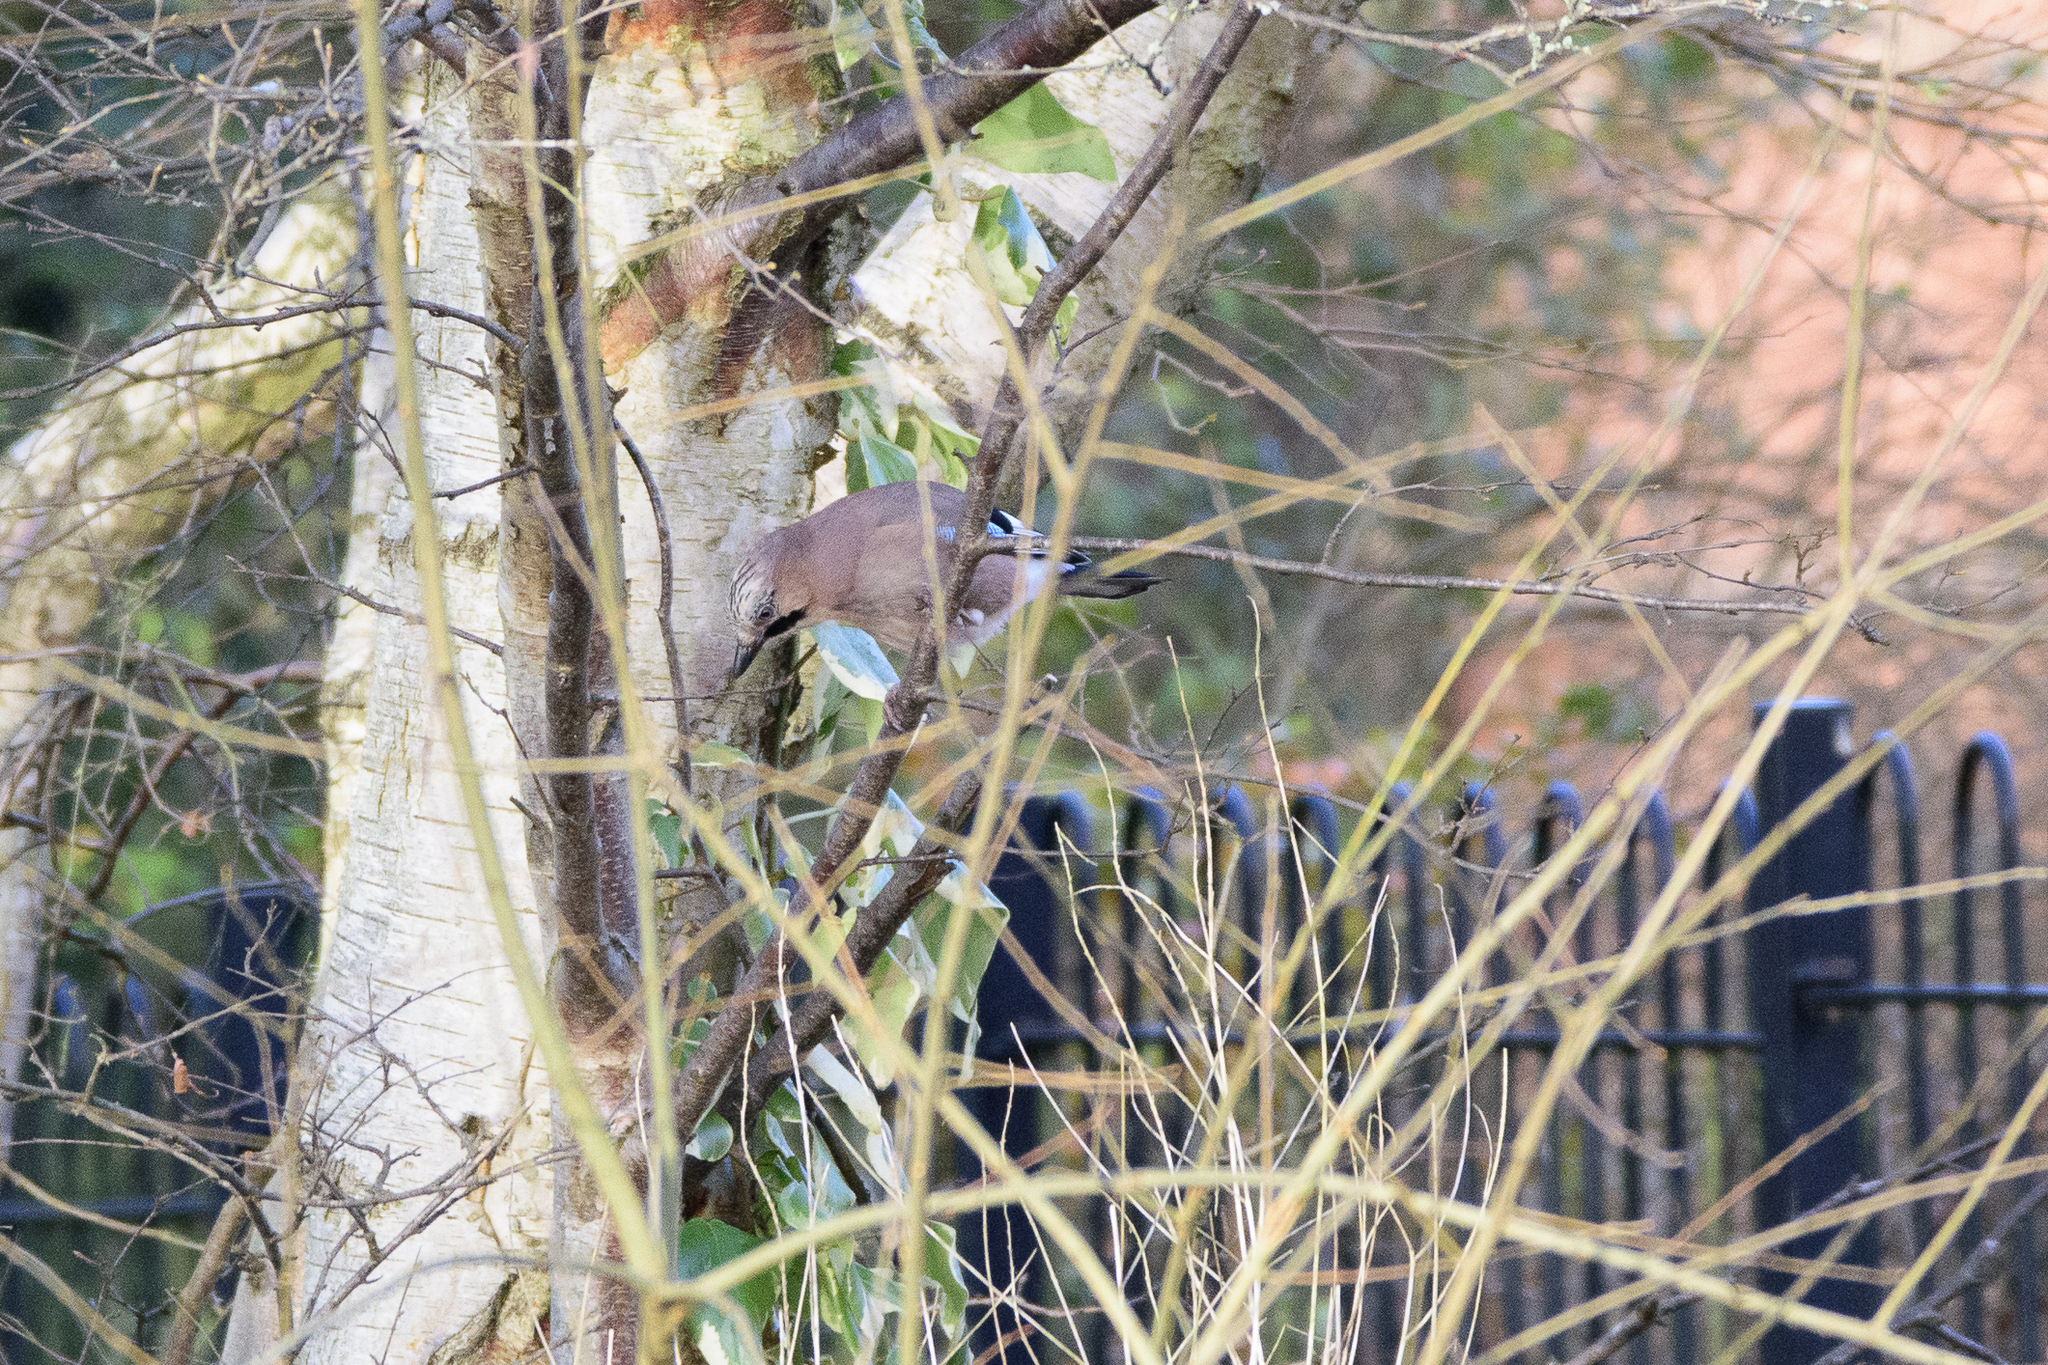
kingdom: Animalia
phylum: Chordata
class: Aves
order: Passeriformes
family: Corvidae
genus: Garrulus
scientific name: Garrulus glandarius
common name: Eurasian jay
